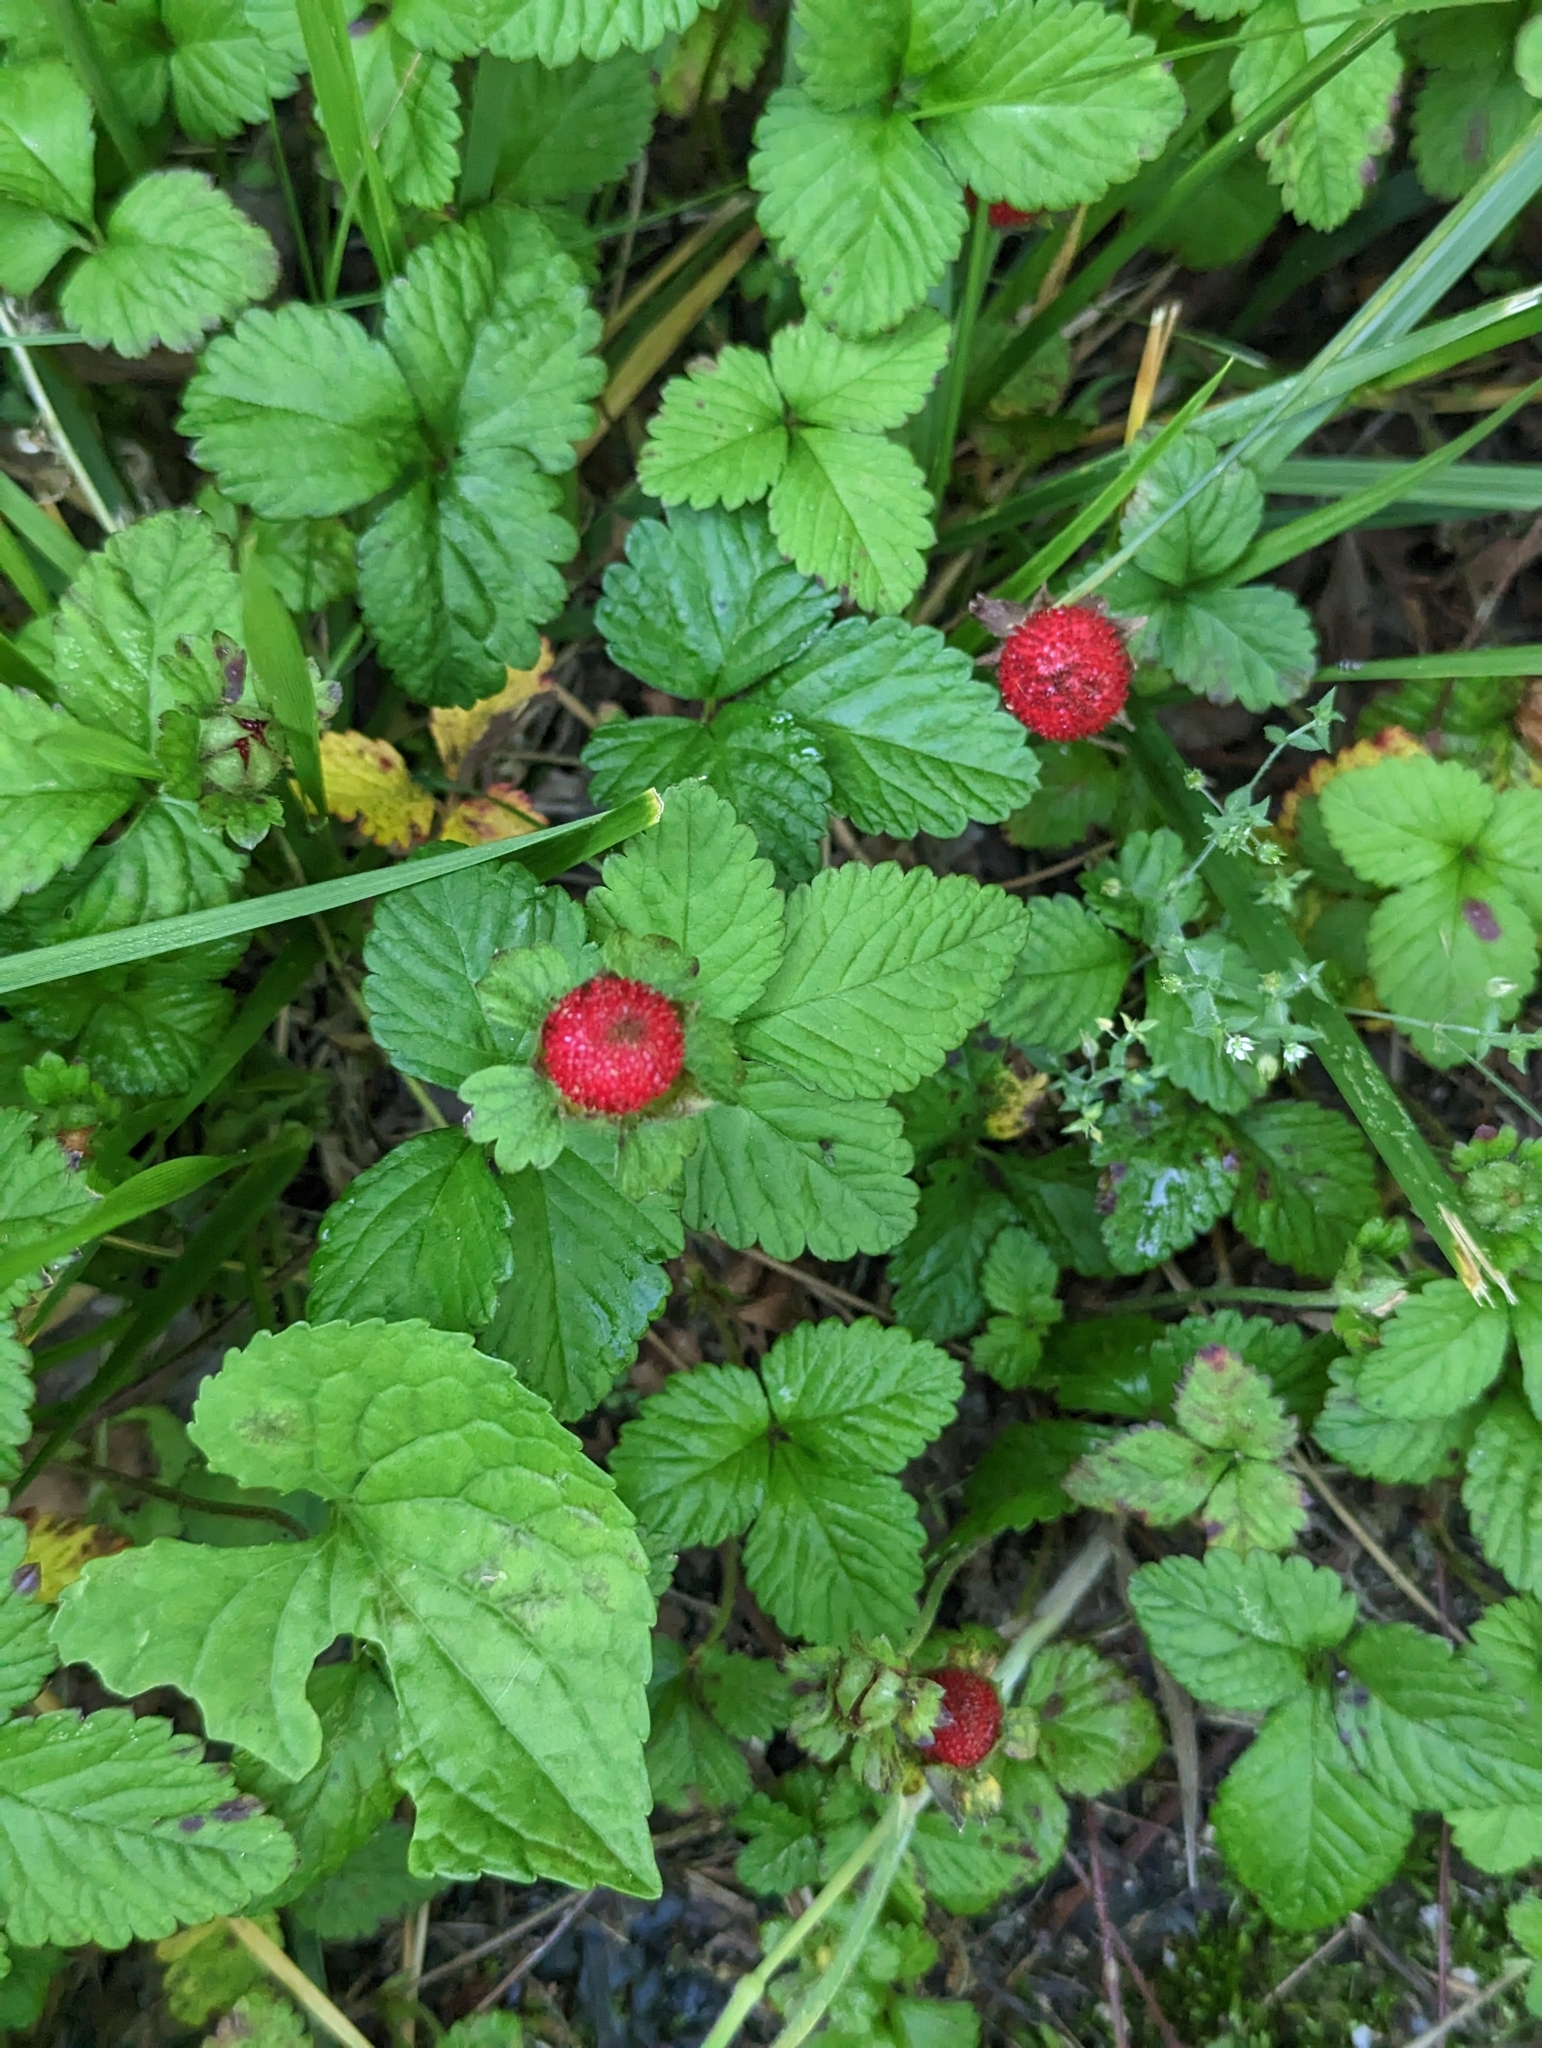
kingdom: Plantae
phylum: Tracheophyta
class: Magnoliopsida
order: Rosales
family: Rosaceae
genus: Potentilla
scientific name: Potentilla indica
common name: Yellow-flowered strawberry
